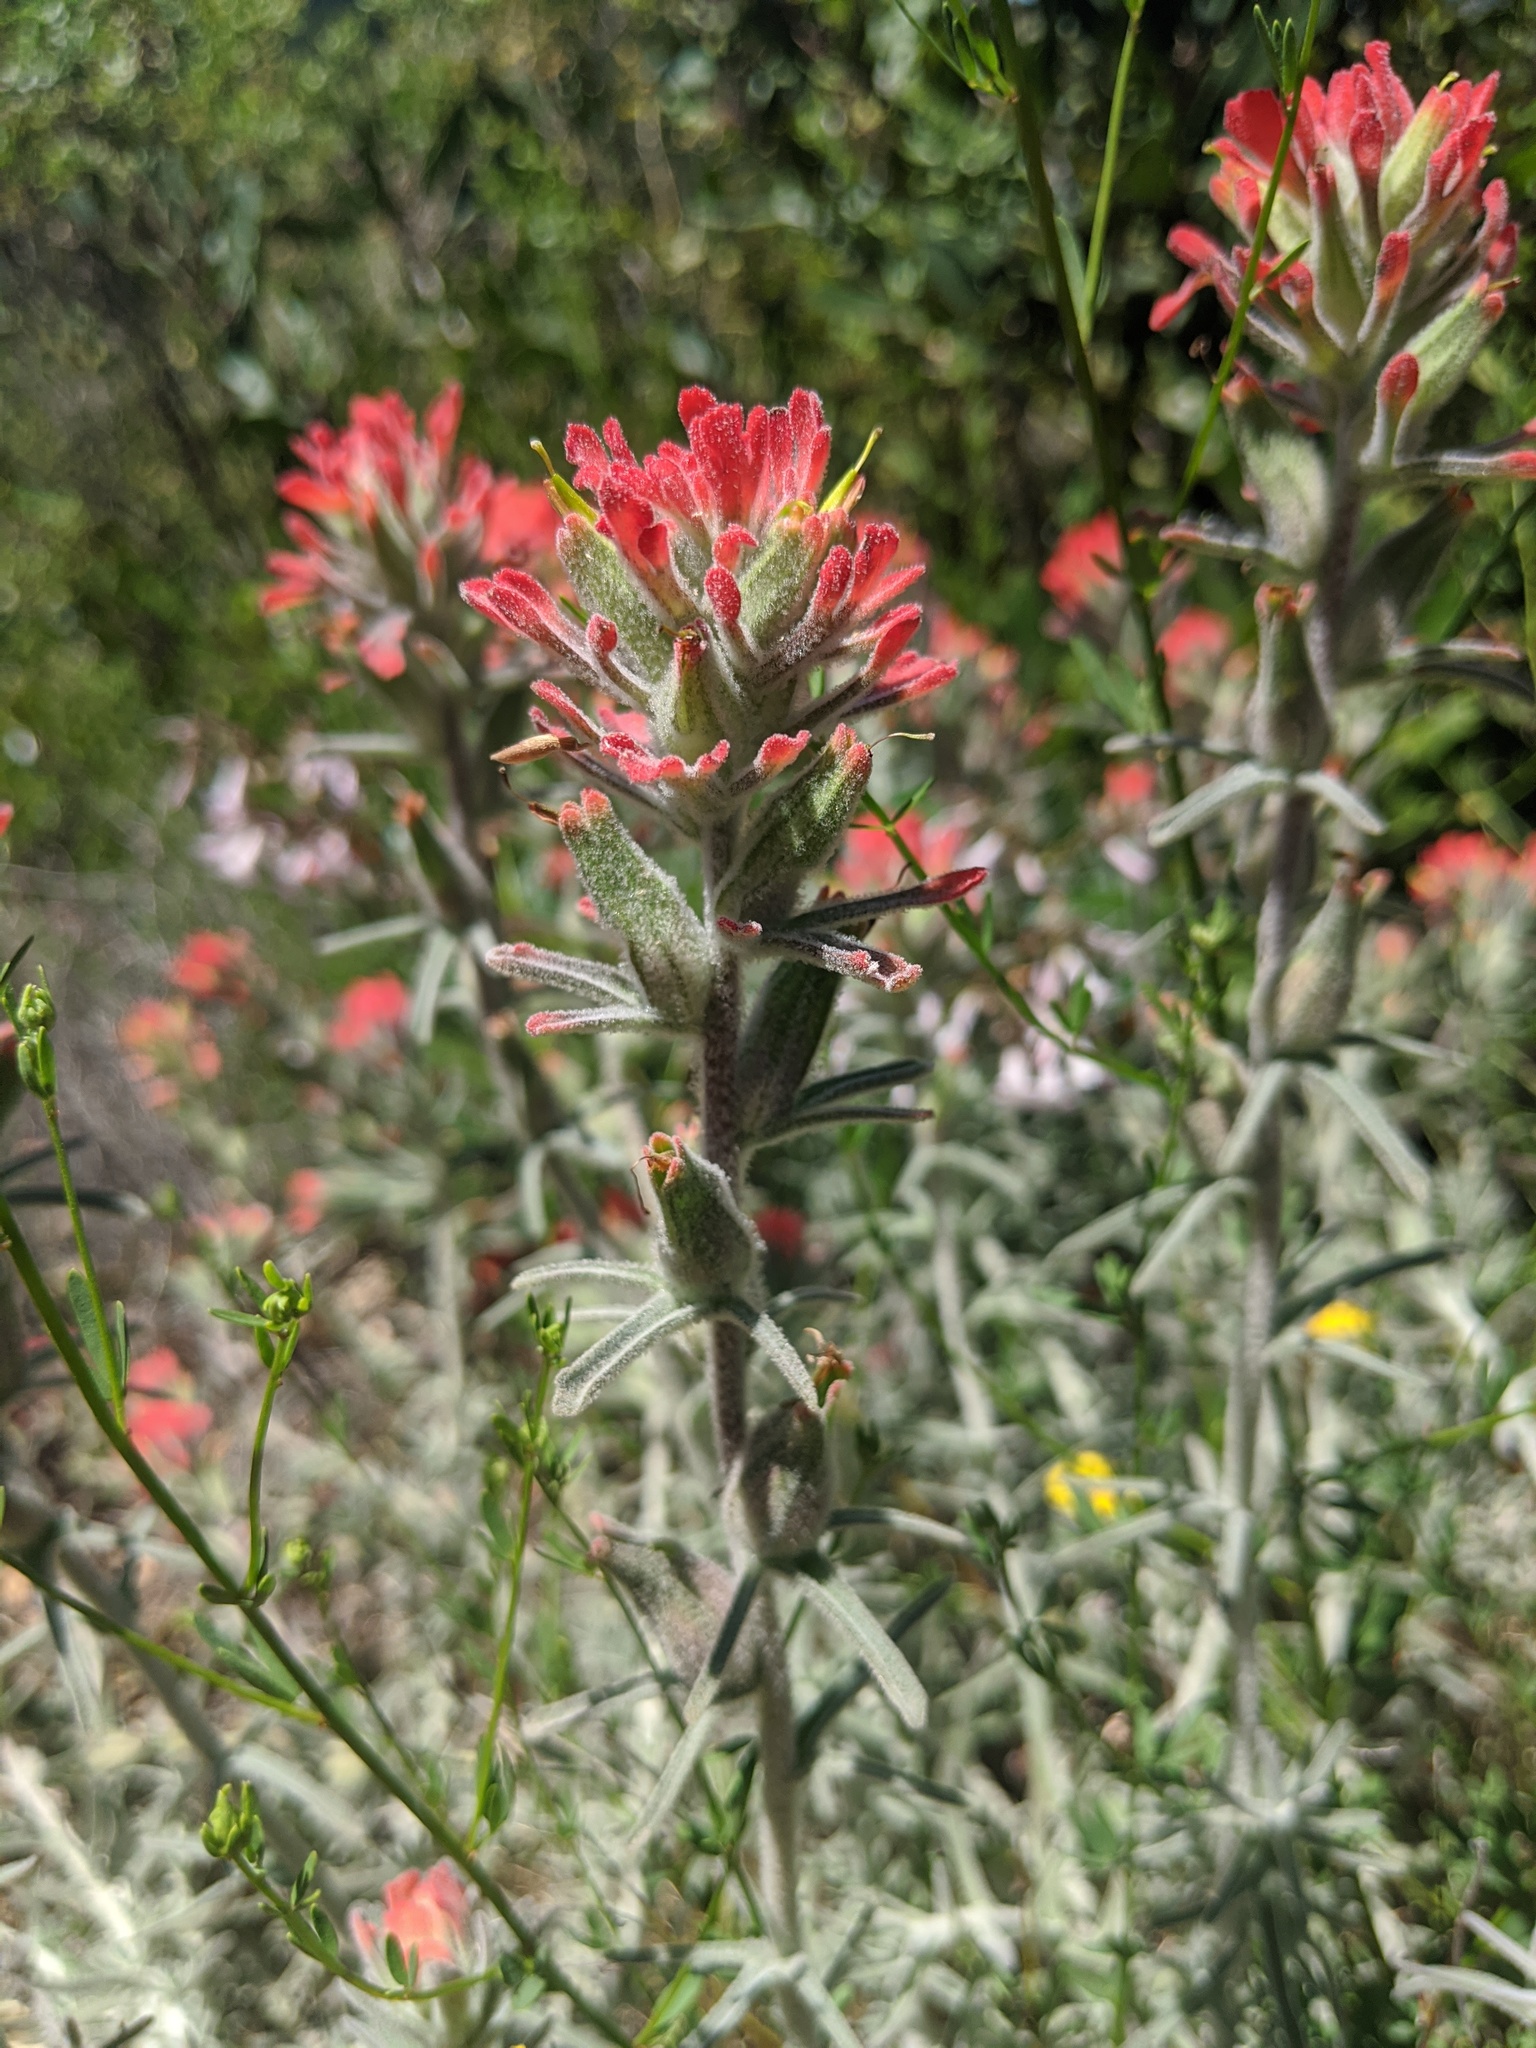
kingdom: Plantae
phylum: Tracheophyta
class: Magnoliopsida
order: Lamiales
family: Orobanchaceae
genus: Castilleja
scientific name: Castilleja foliolosa
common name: Woolly indian paintbrush
